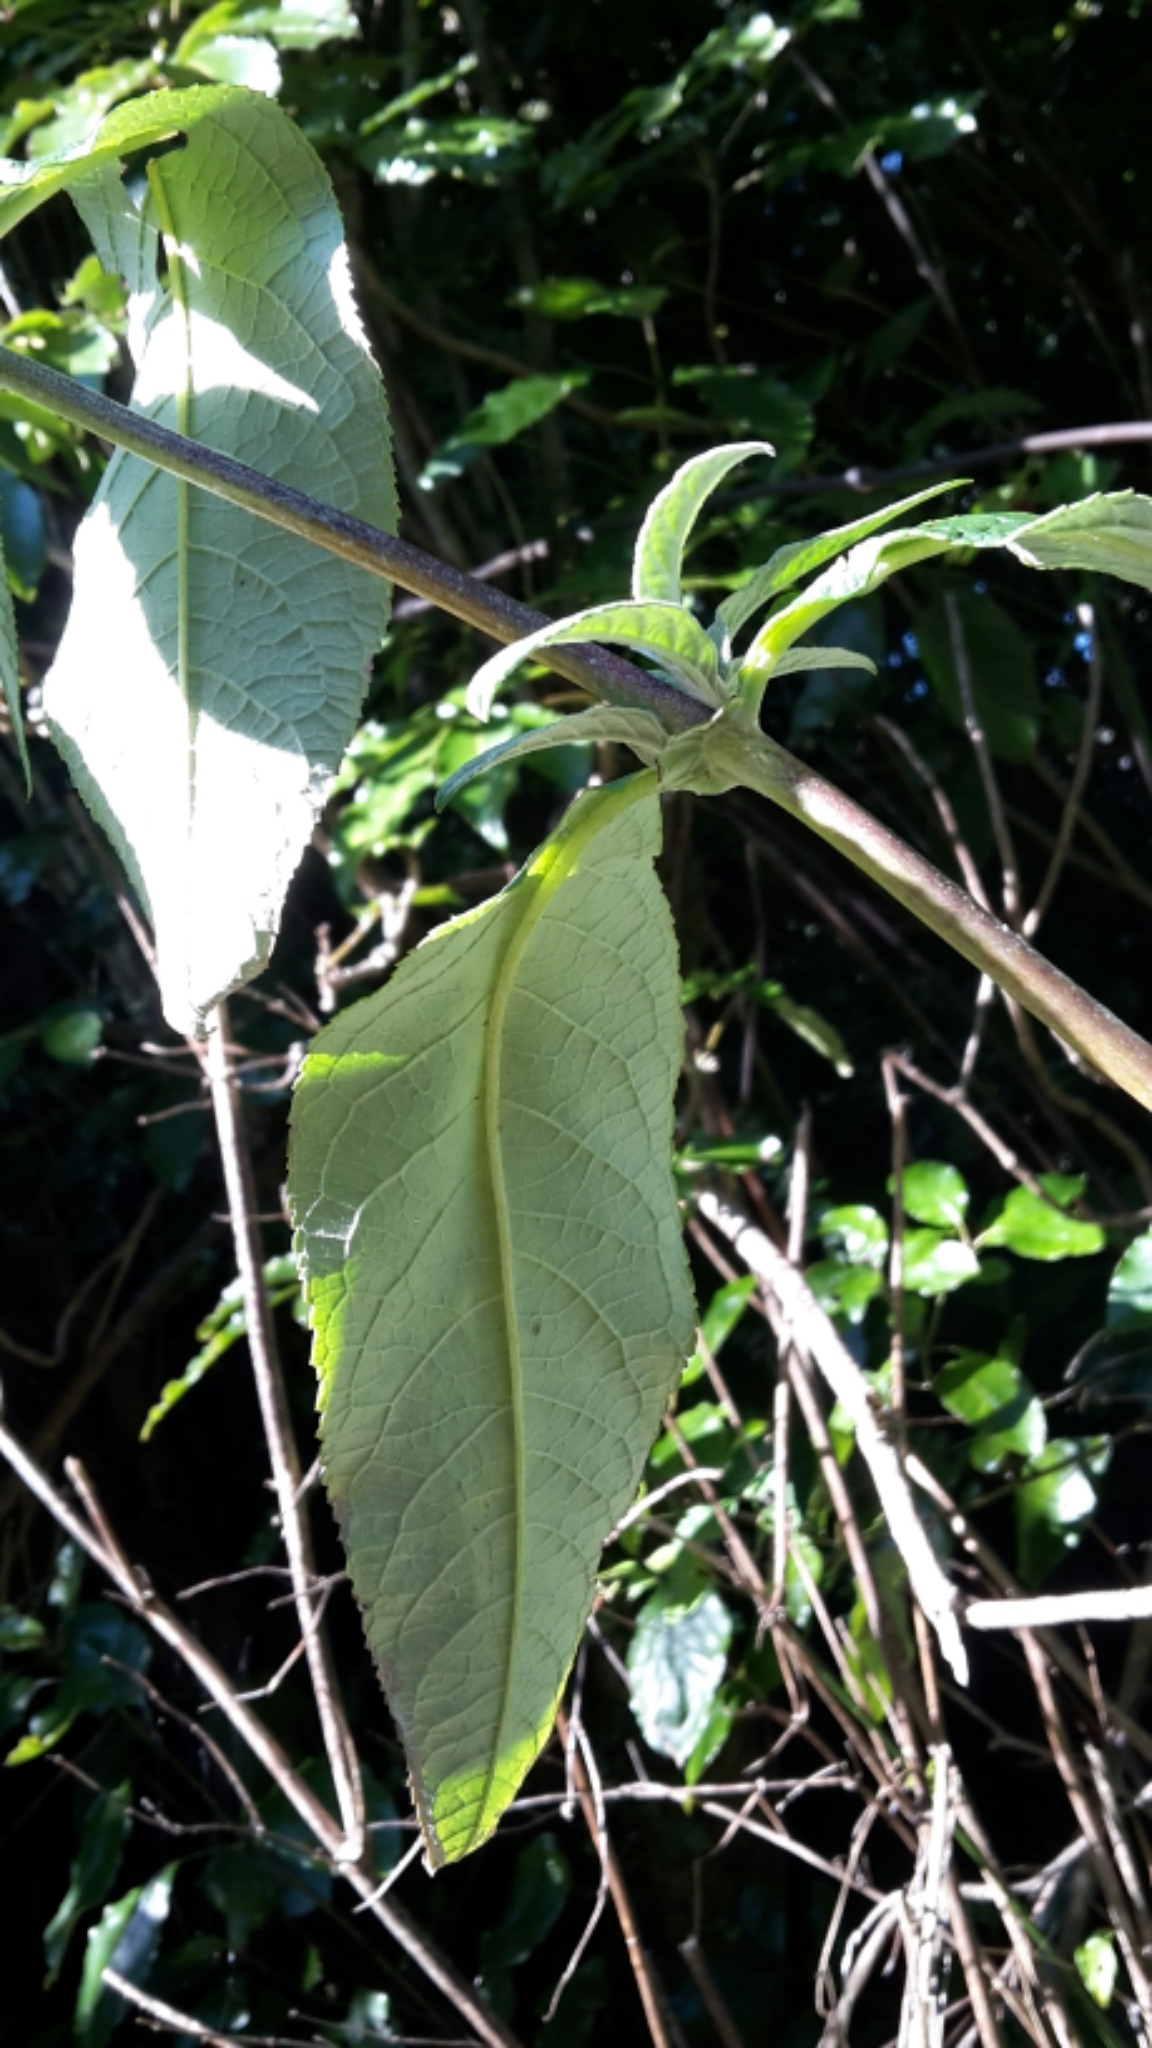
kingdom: Plantae
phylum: Tracheophyta
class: Magnoliopsida
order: Lamiales
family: Scrophulariaceae
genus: Buddleja
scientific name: Buddleja davidii
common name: Butterfly-bush
